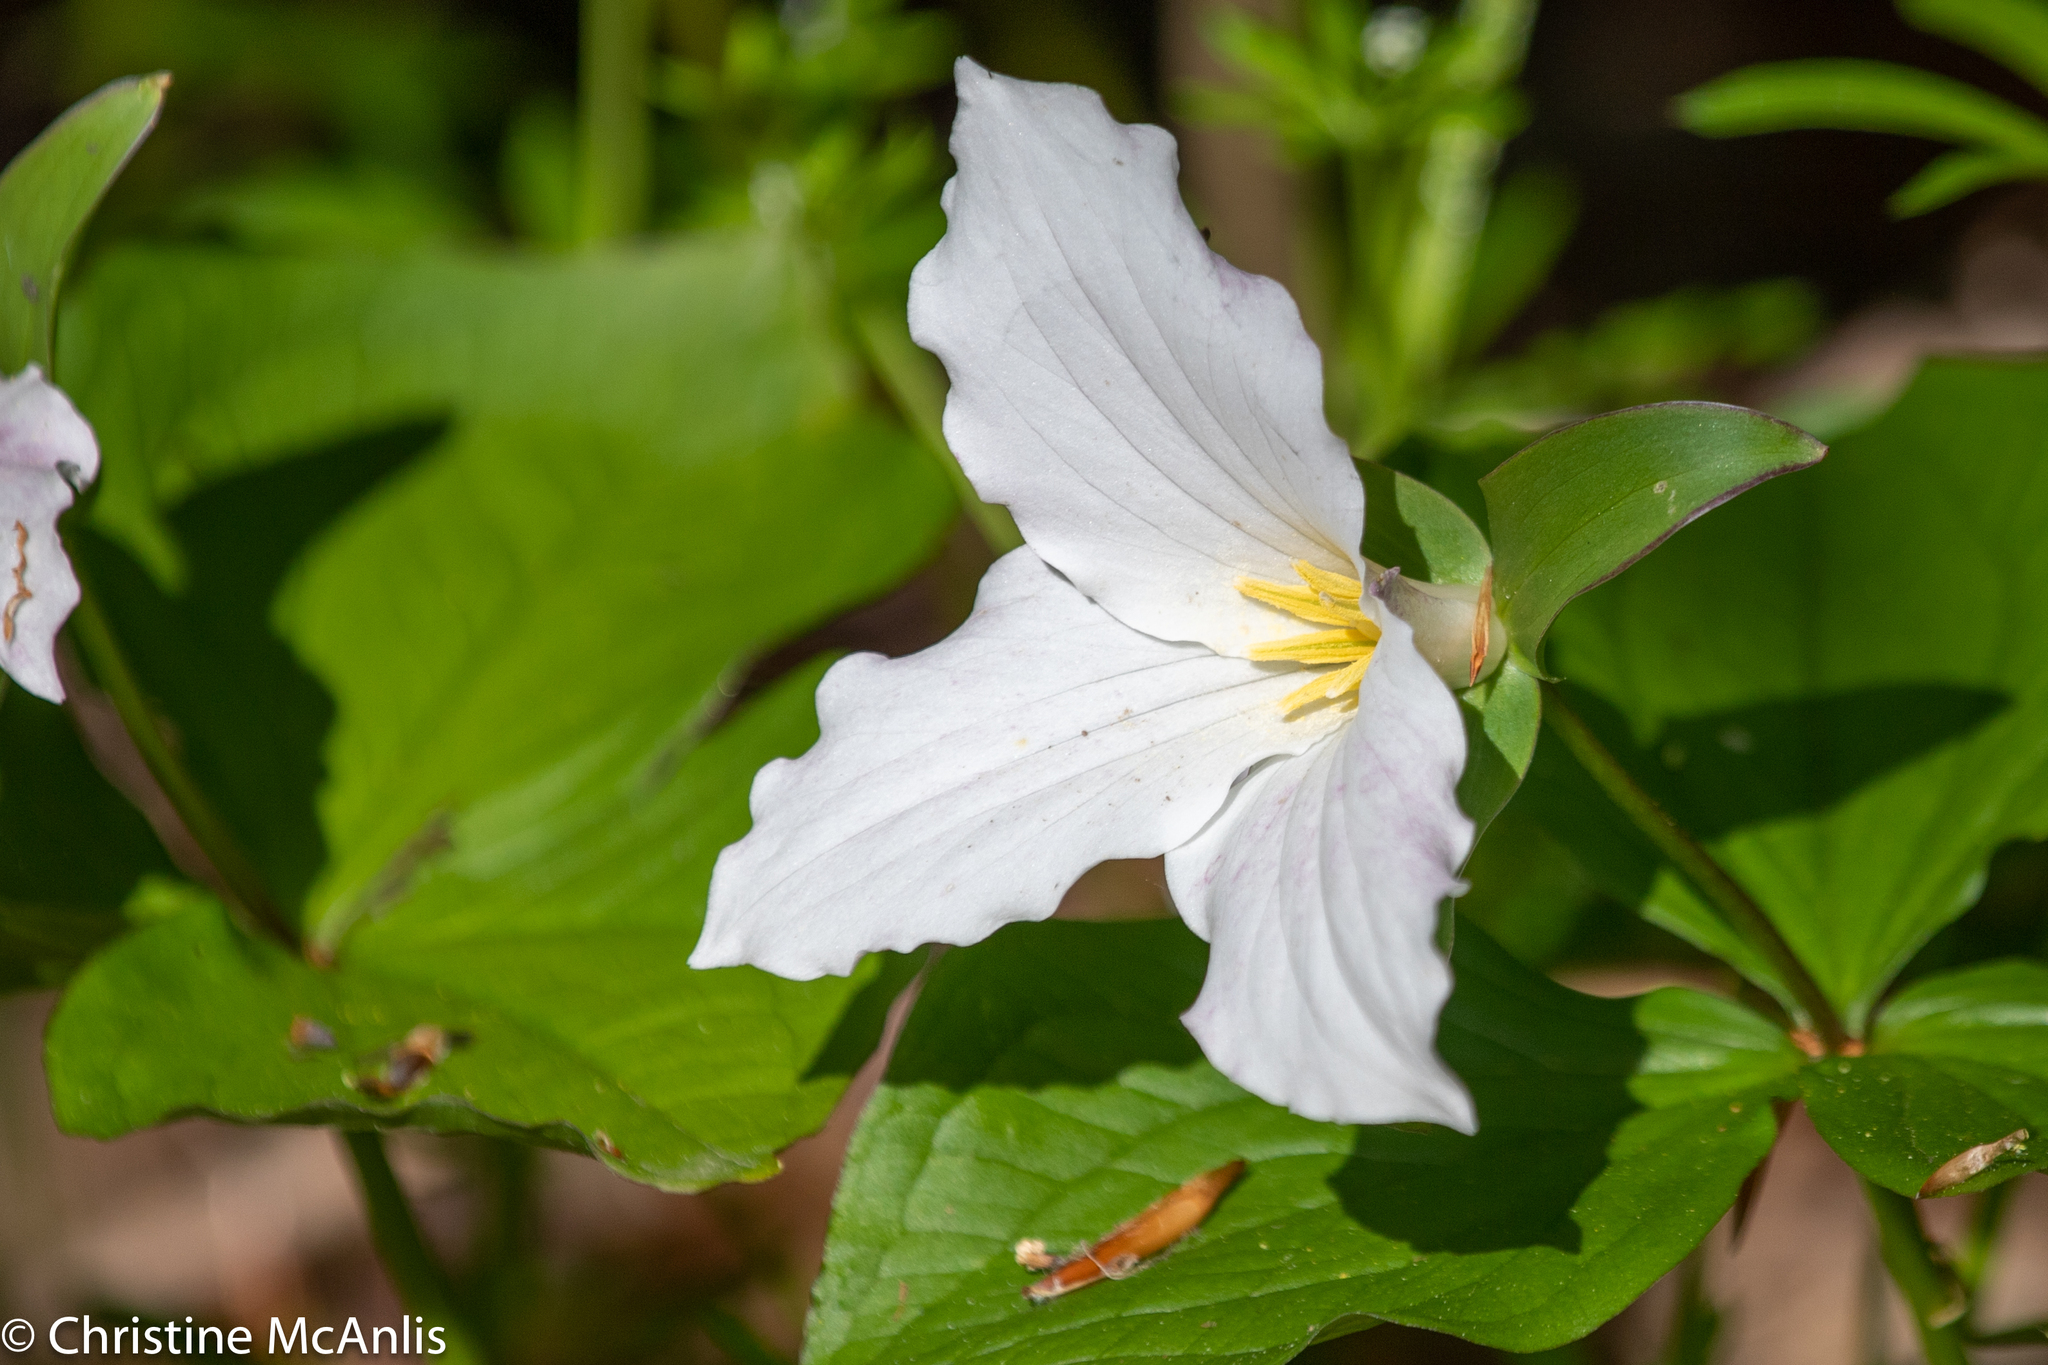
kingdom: Plantae
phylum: Tracheophyta
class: Liliopsida
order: Liliales
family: Melanthiaceae
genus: Trillium
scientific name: Trillium grandiflorum
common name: Great white trillium
